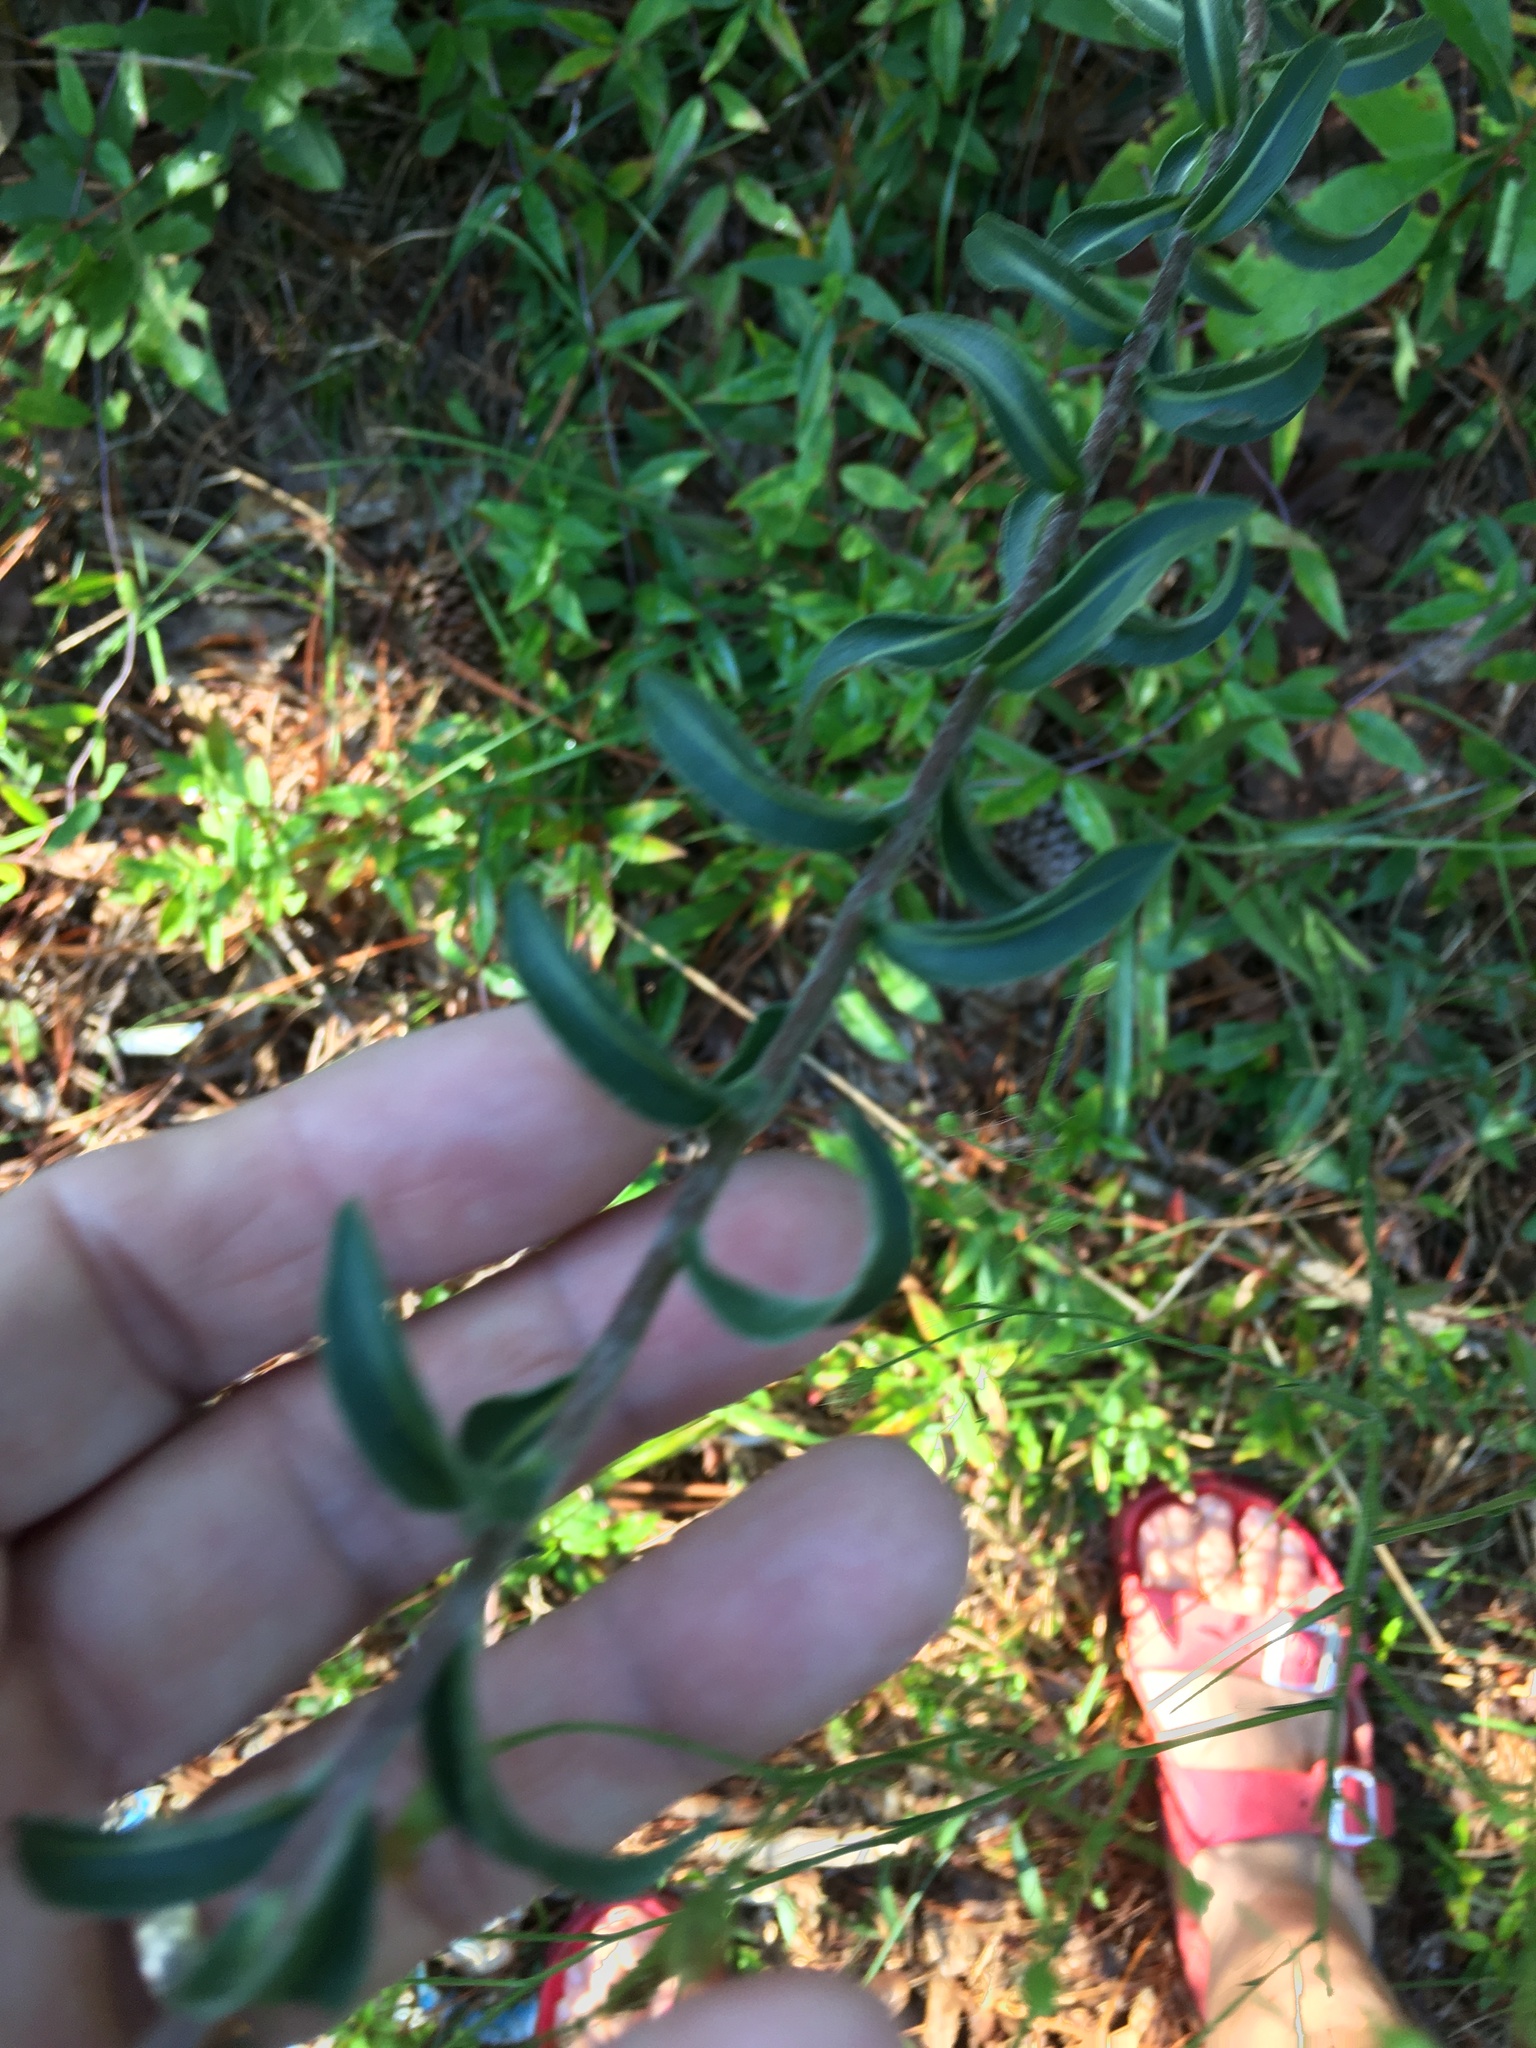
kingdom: Plantae
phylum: Tracheophyta
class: Magnoliopsida
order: Asterales
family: Asteraceae
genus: Chrysopsis
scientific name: Chrysopsis mariana
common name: Maryland golden-aster
